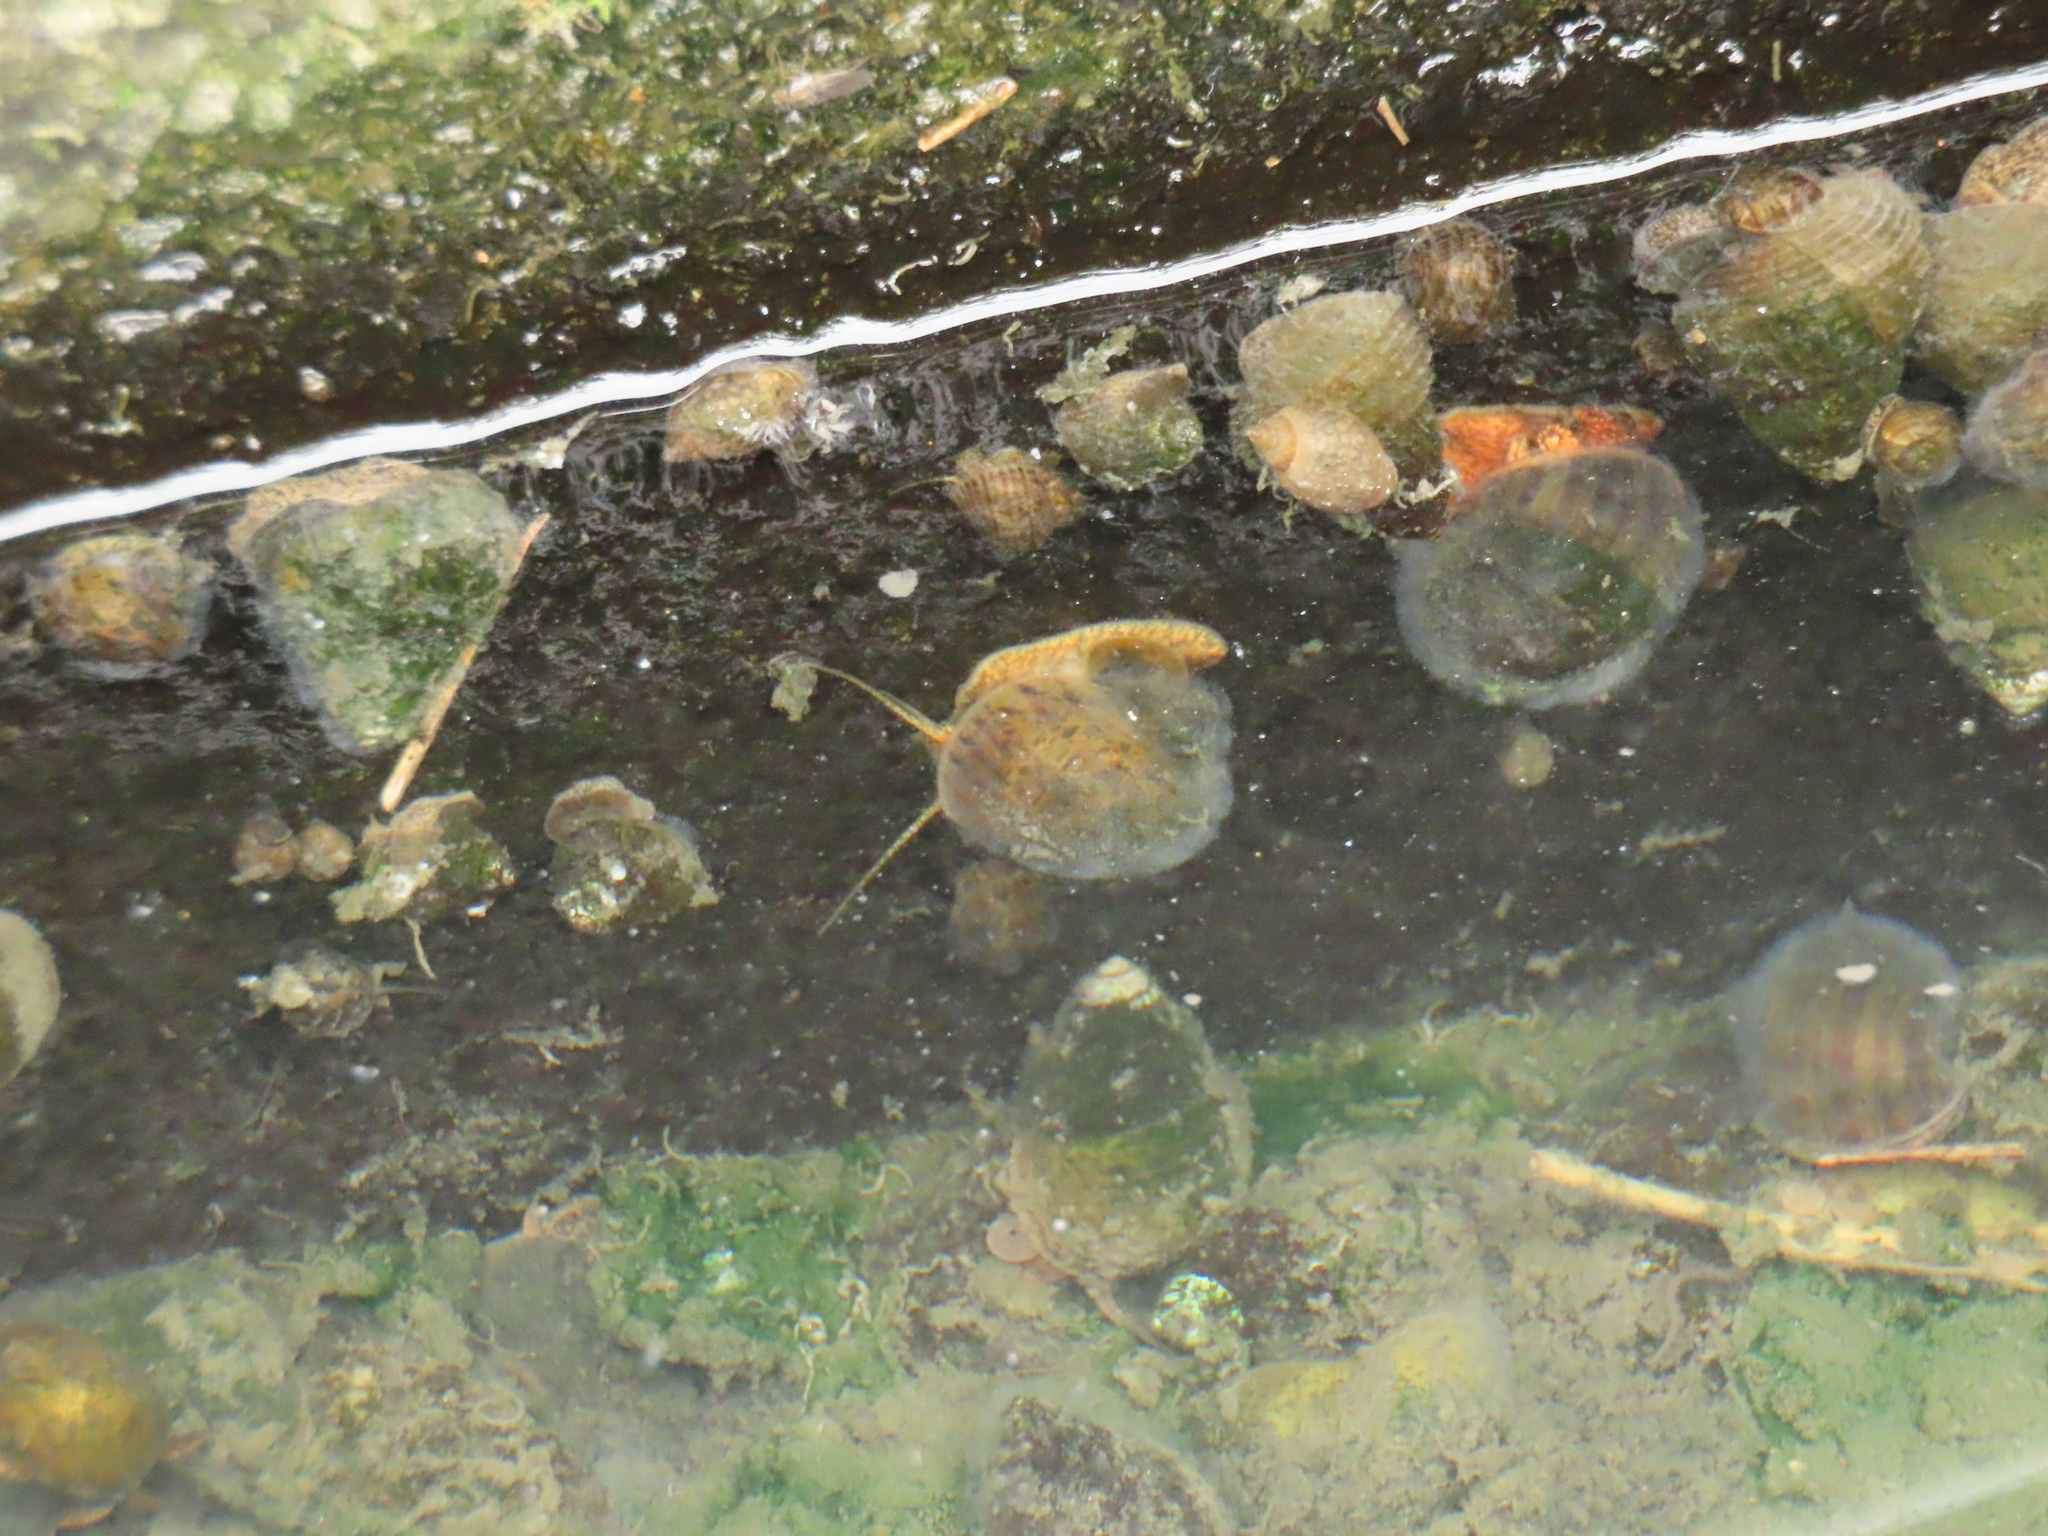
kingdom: Animalia
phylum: Mollusca
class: Gastropoda
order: Architaenioglossa
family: Ampullariidae
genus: Pomacea
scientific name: Pomacea canaliculata
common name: Channeled applesnail
